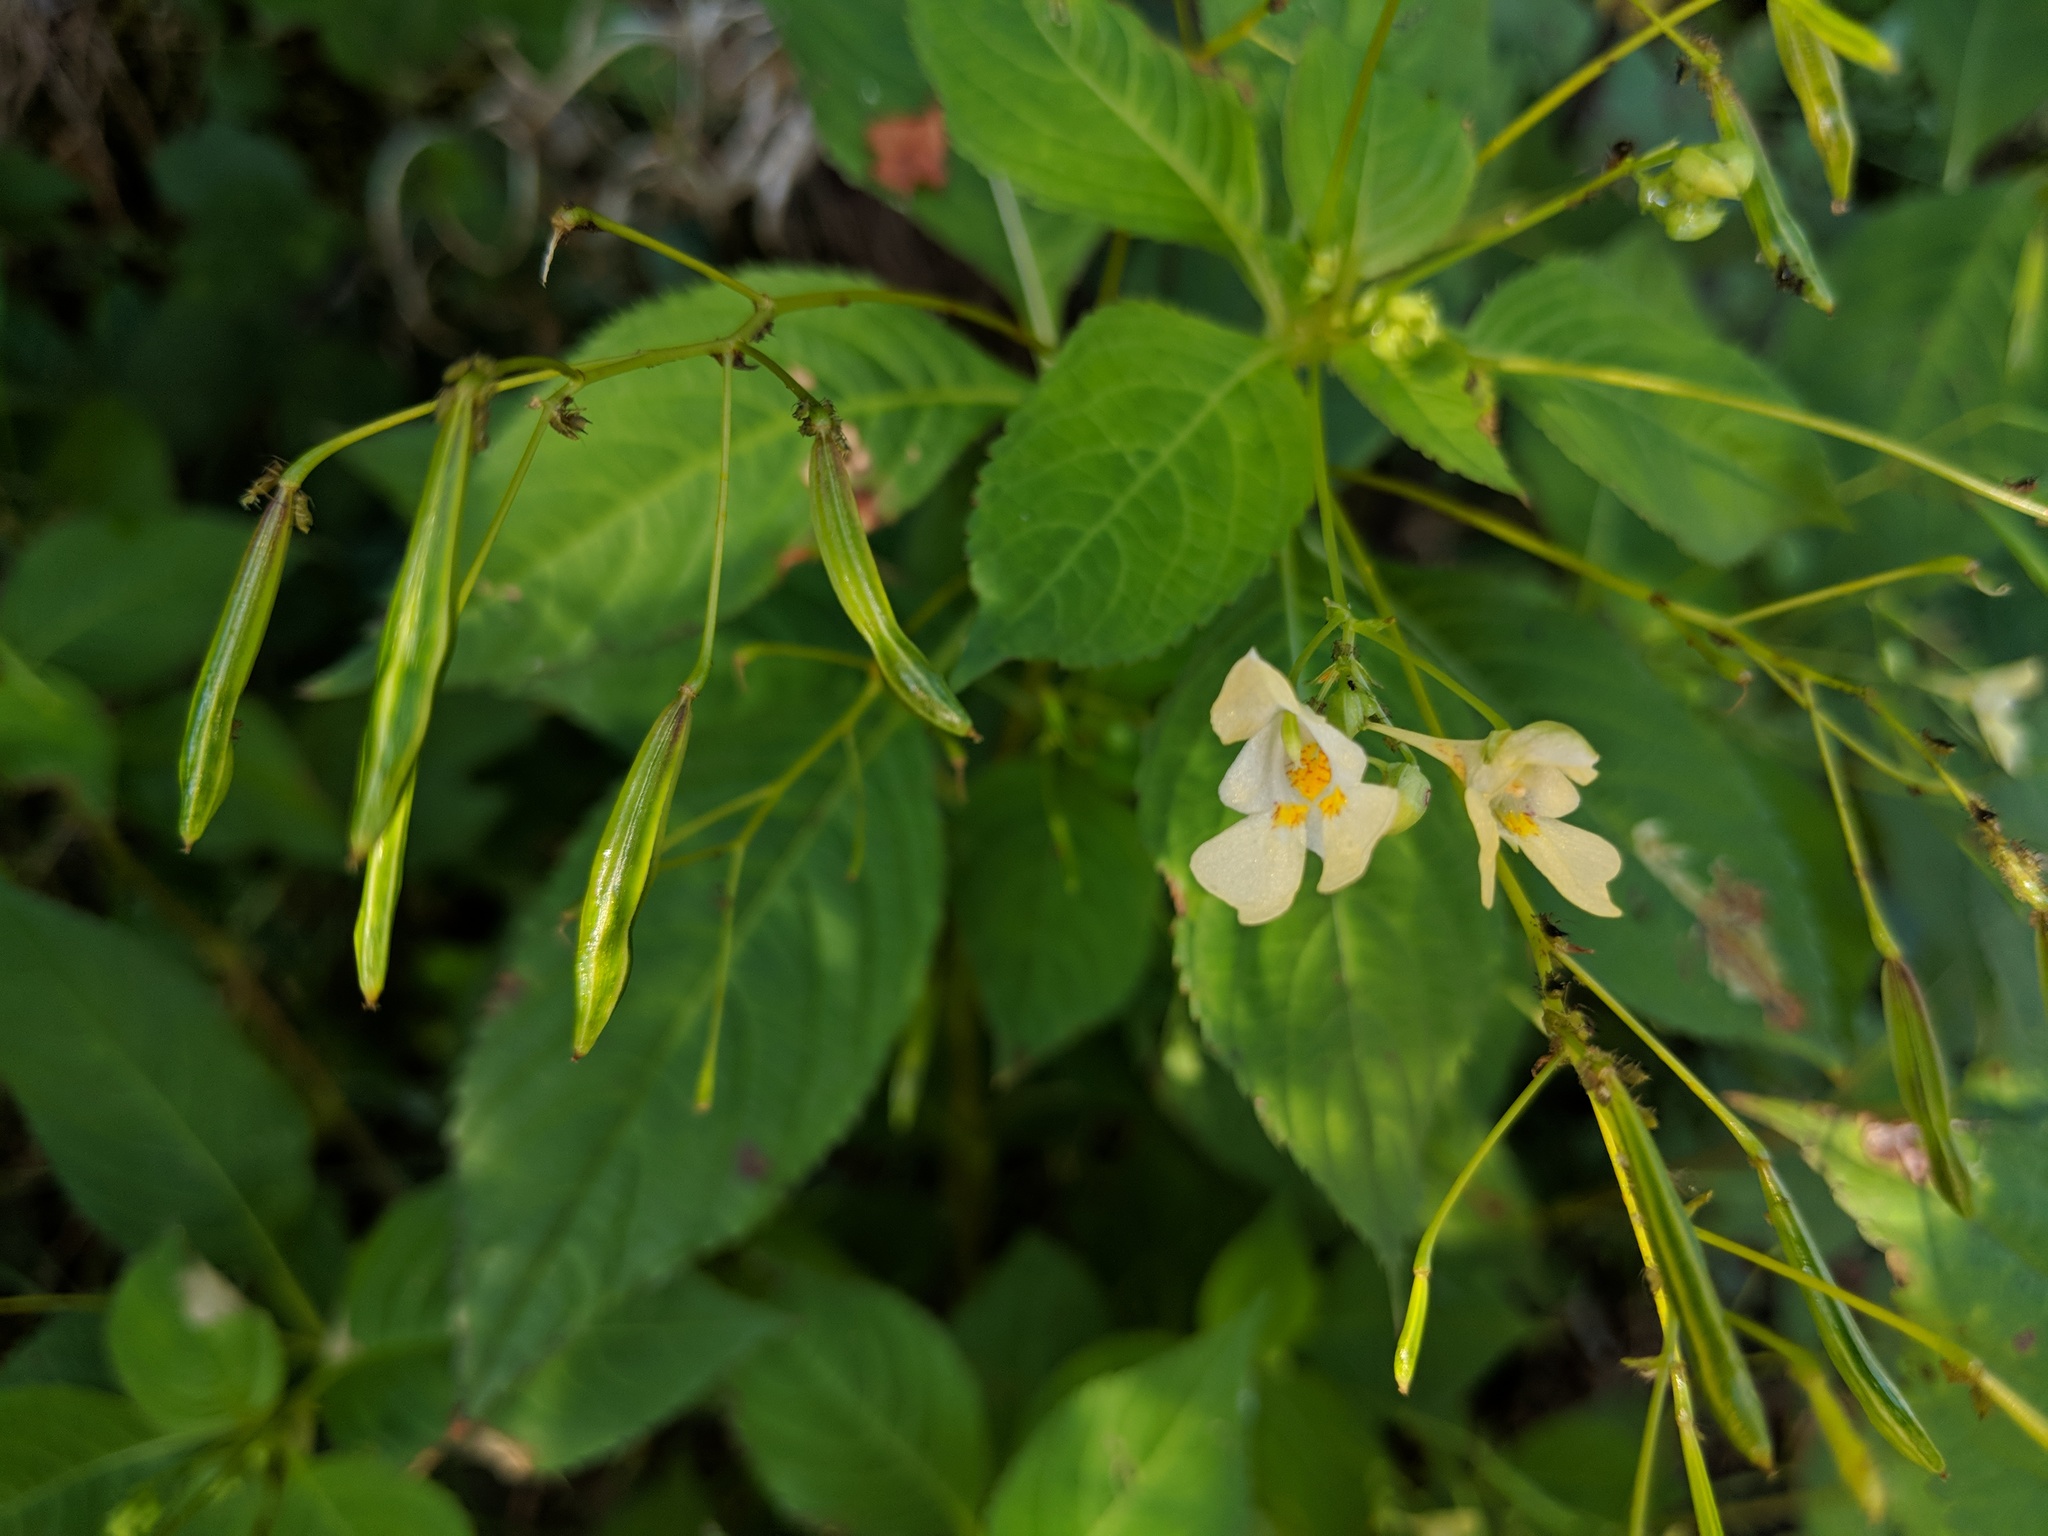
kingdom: Plantae
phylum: Tracheophyta
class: Magnoliopsida
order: Ericales
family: Balsaminaceae
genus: Impatiens
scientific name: Impatiens parviflora
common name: Small balsam
